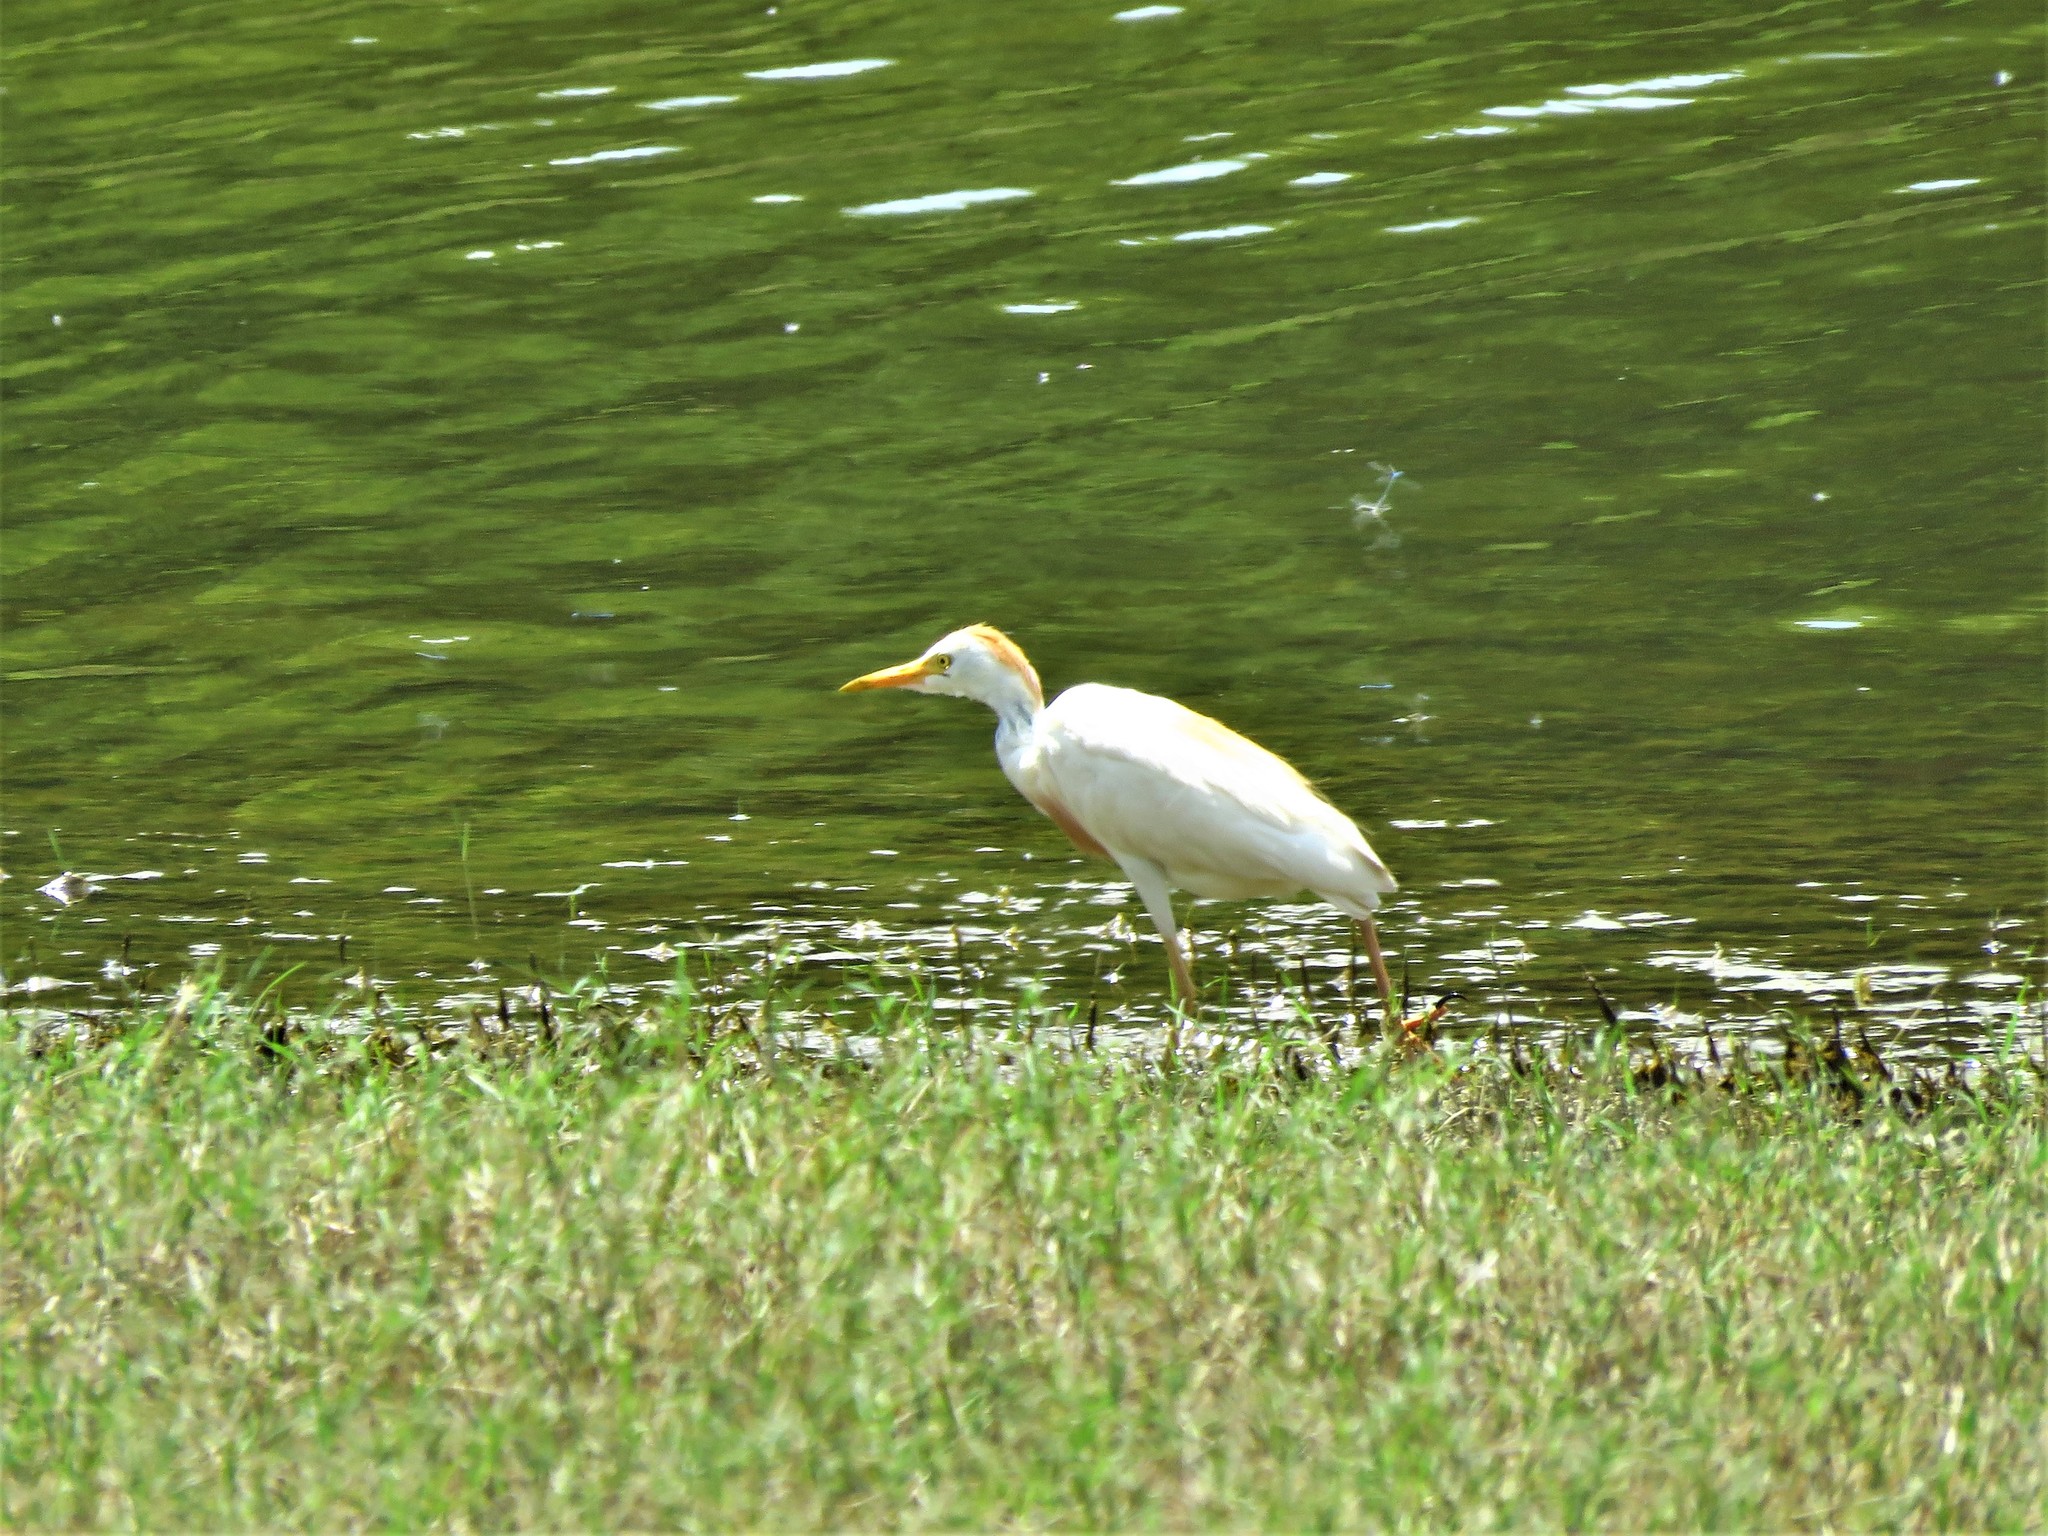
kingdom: Animalia
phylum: Chordata
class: Aves
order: Pelecaniformes
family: Ardeidae
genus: Bubulcus
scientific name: Bubulcus ibis
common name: Cattle egret
